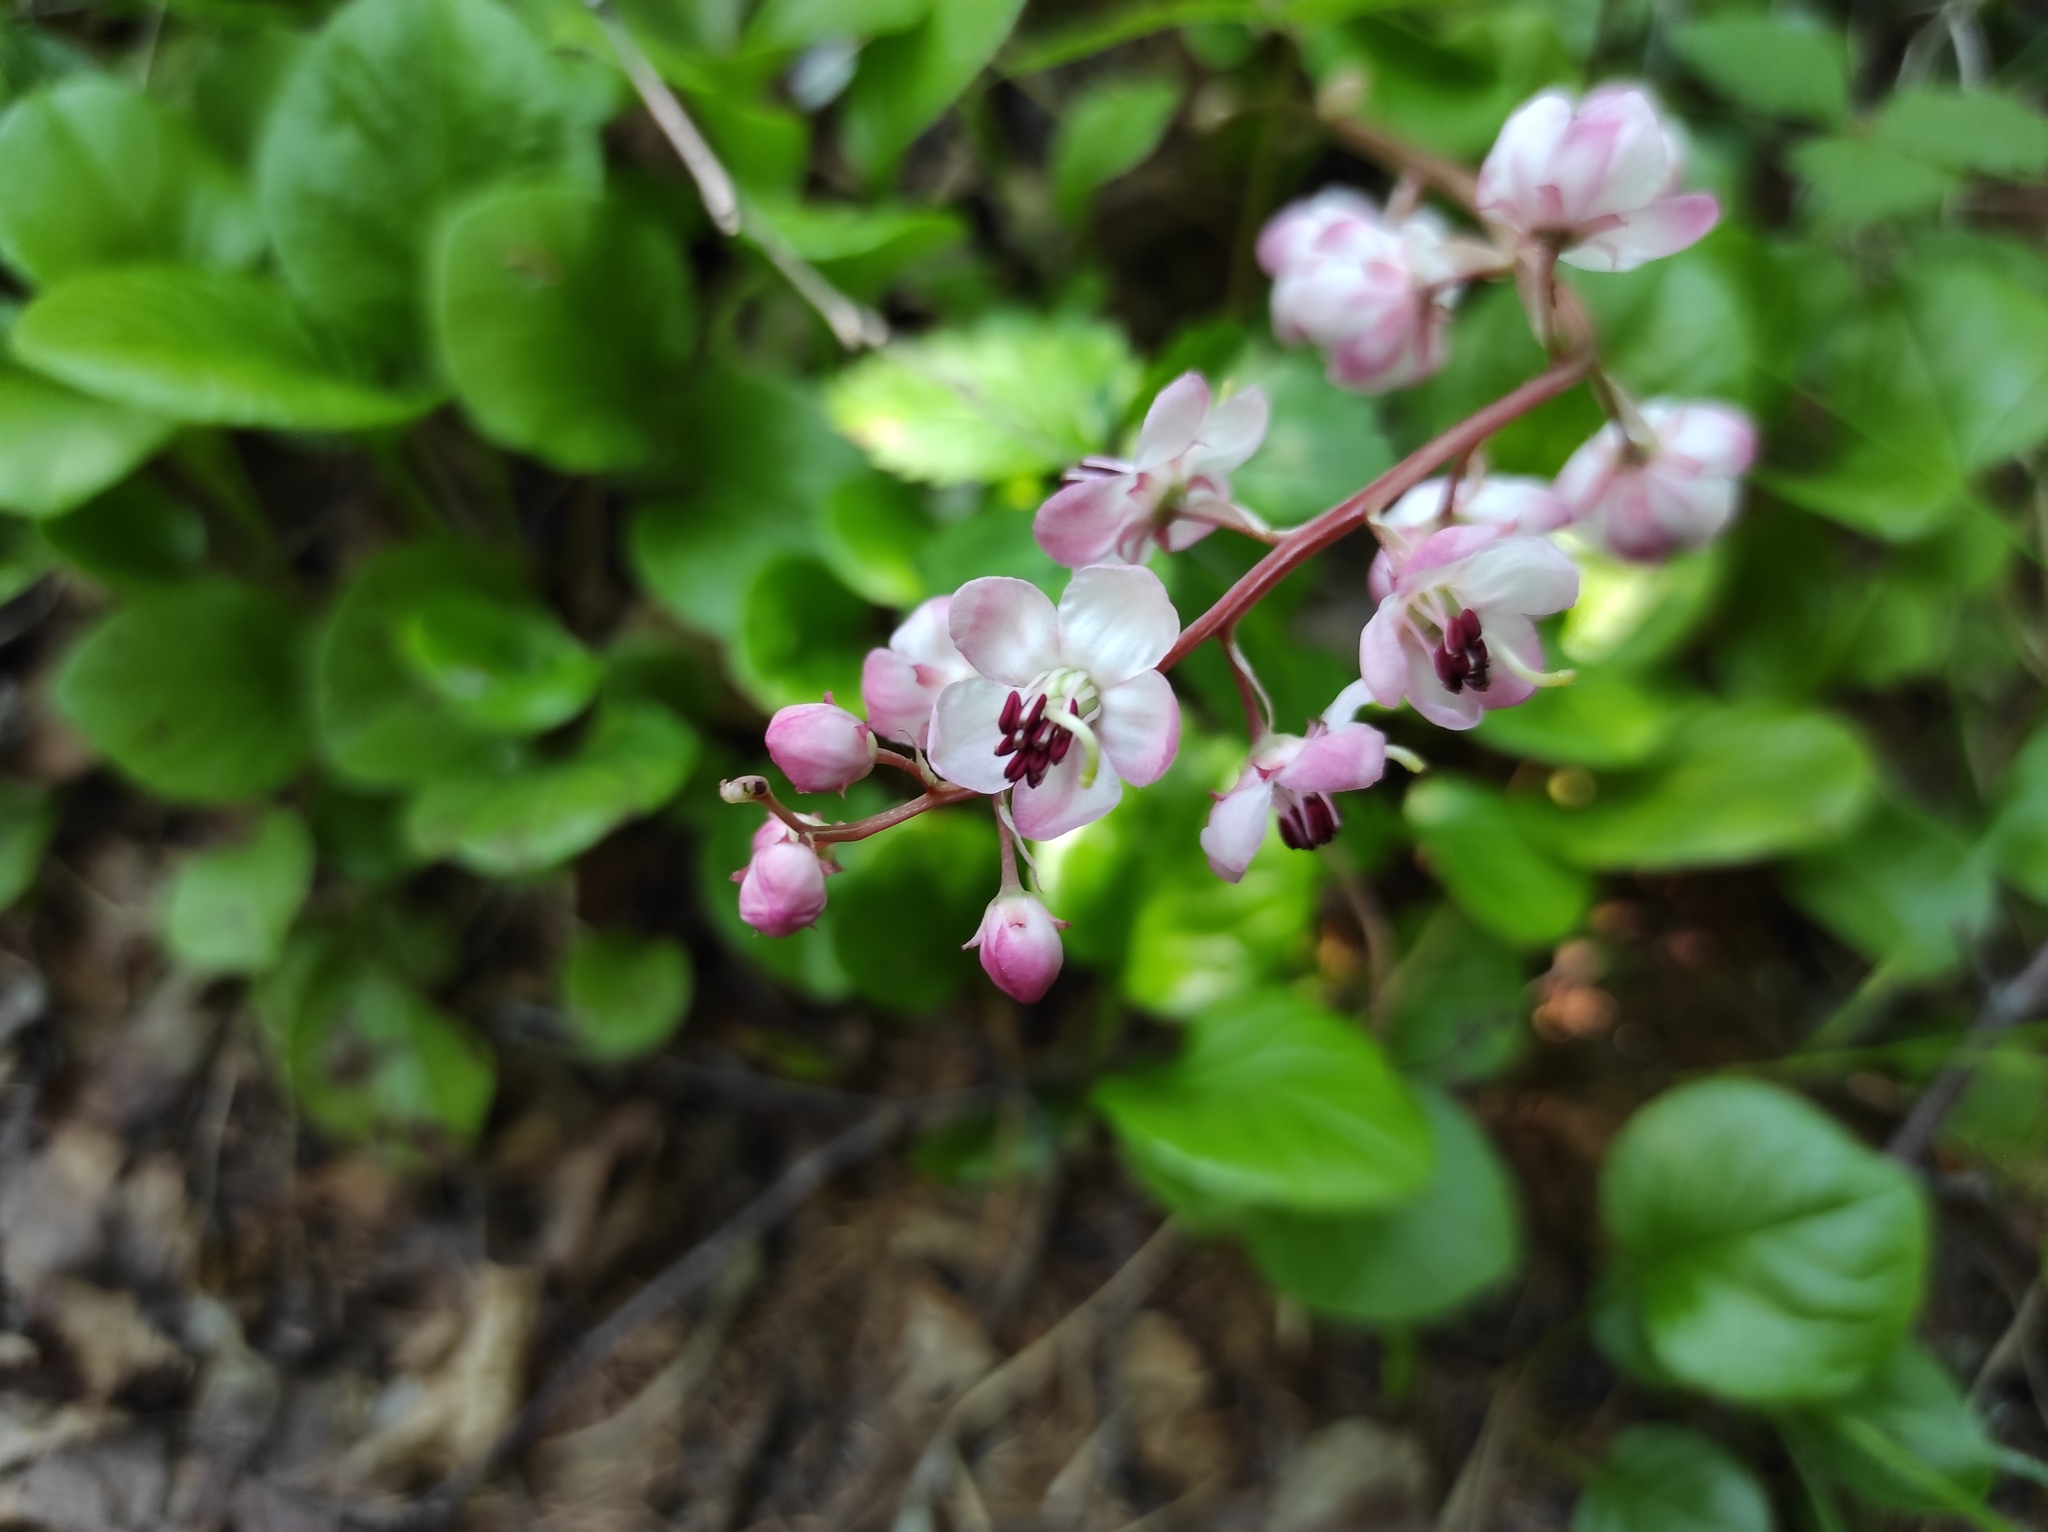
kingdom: Plantae
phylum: Tracheophyta
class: Magnoliopsida
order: Ericales
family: Ericaceae
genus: Pyrola
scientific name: Pyrola asarifolia
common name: Bog wintergreen
